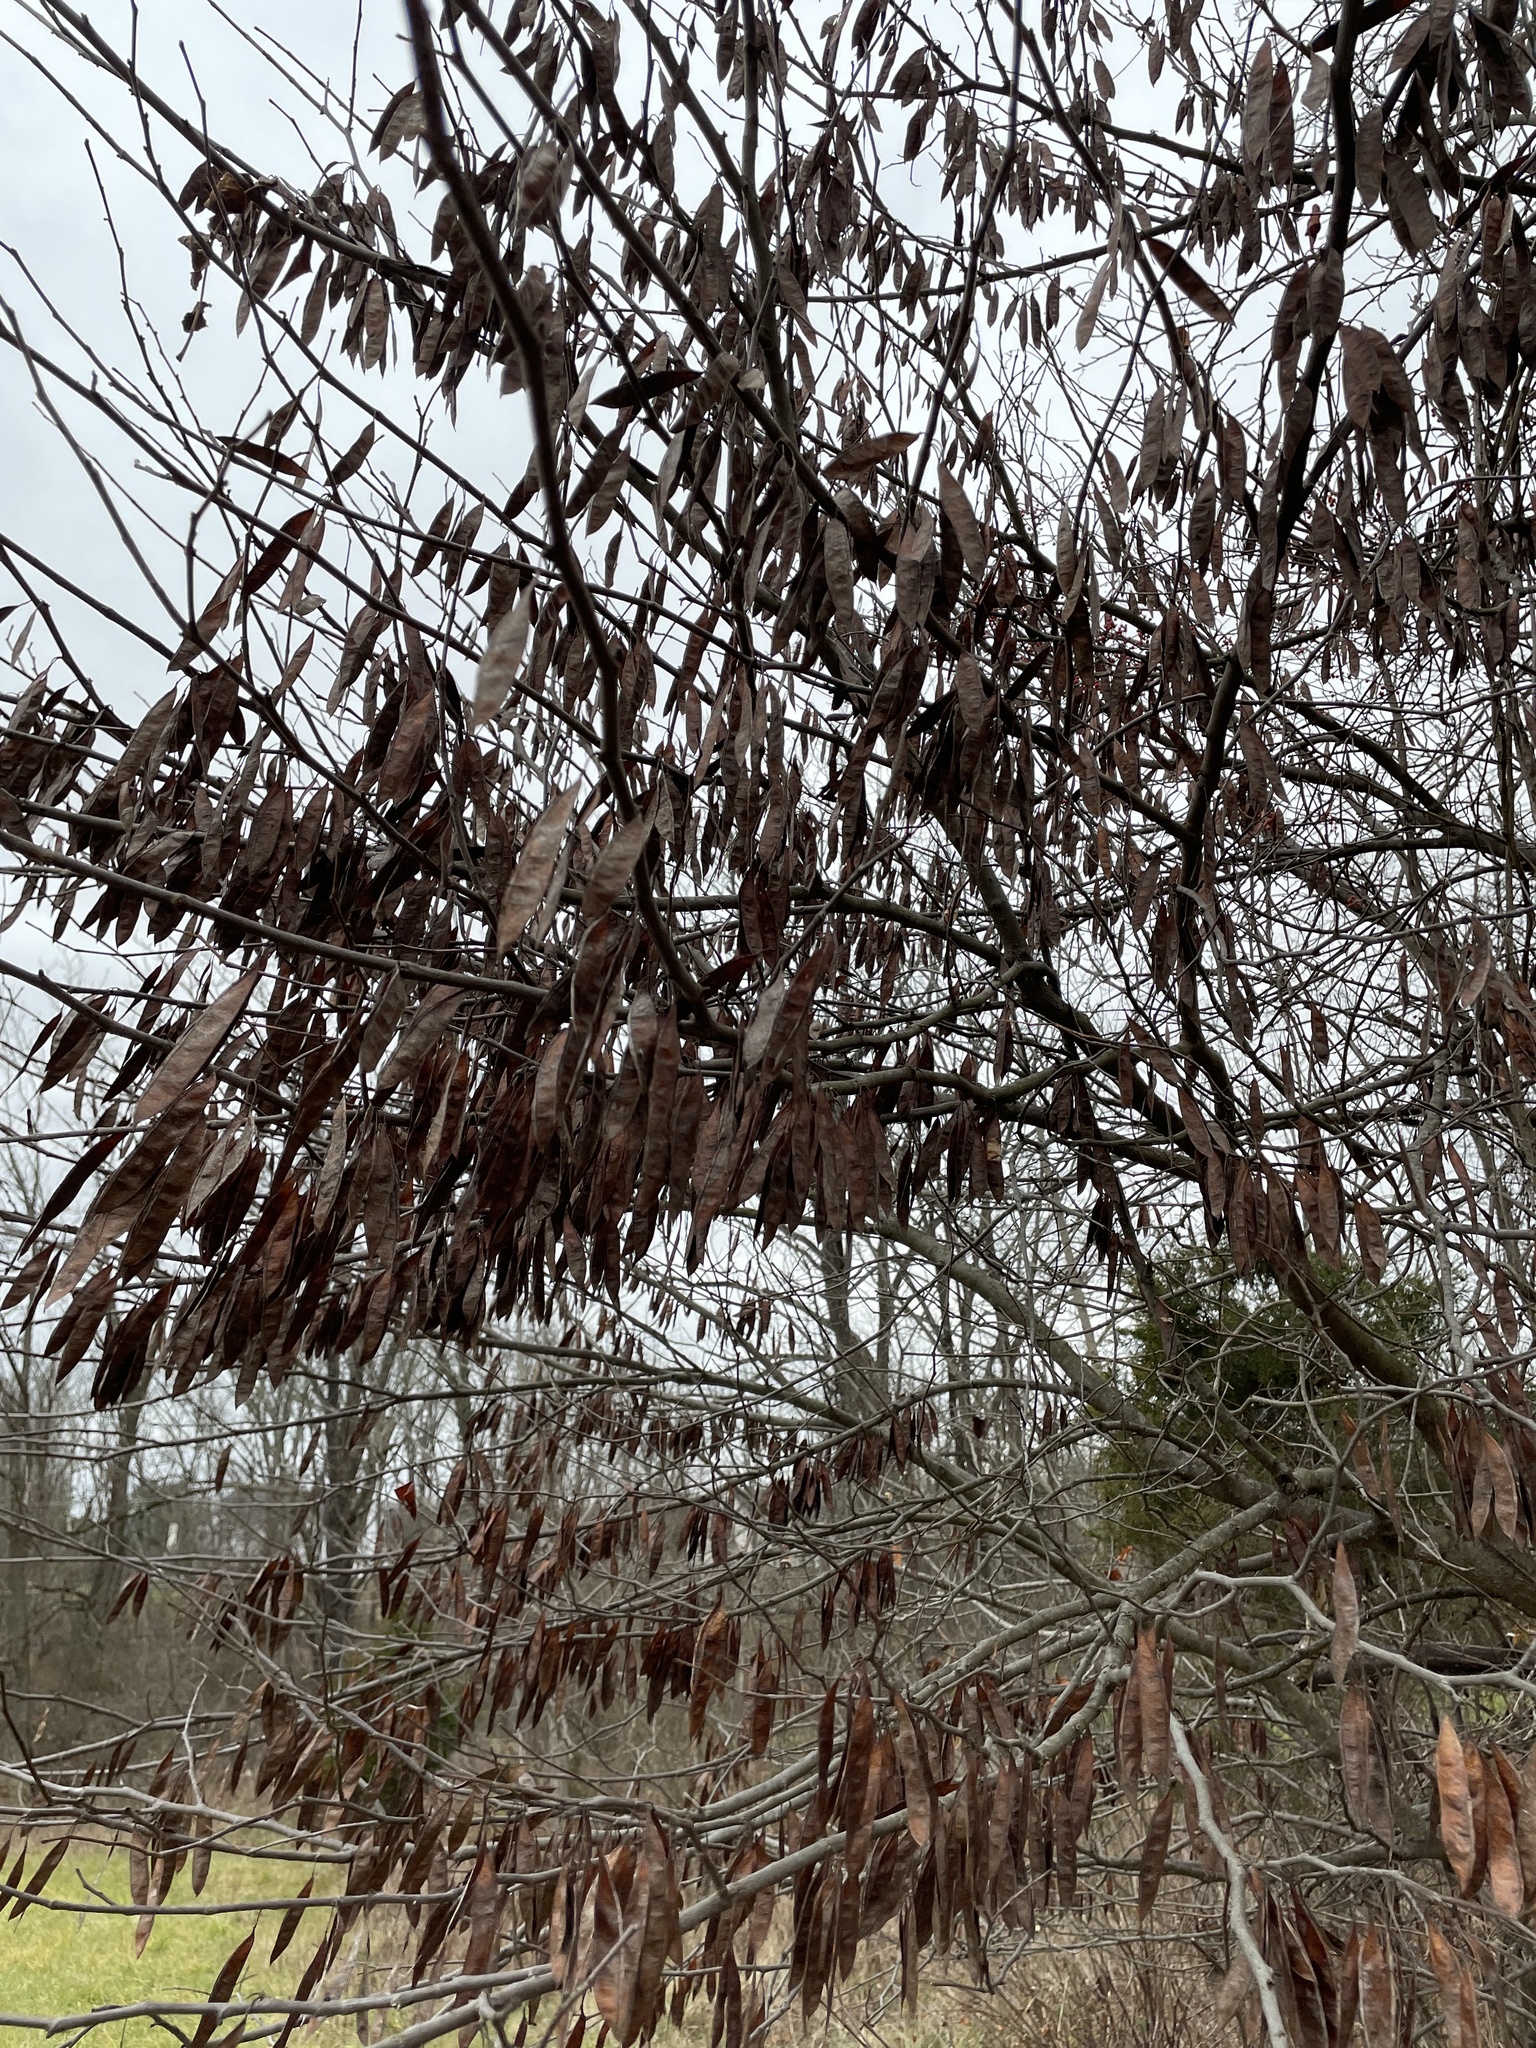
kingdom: Plantae
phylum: Tracheophyta
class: Magnoliopsida
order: Fabales
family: Fabaceae
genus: Cercis
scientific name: Cercis canadensis
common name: Eastern redbud
